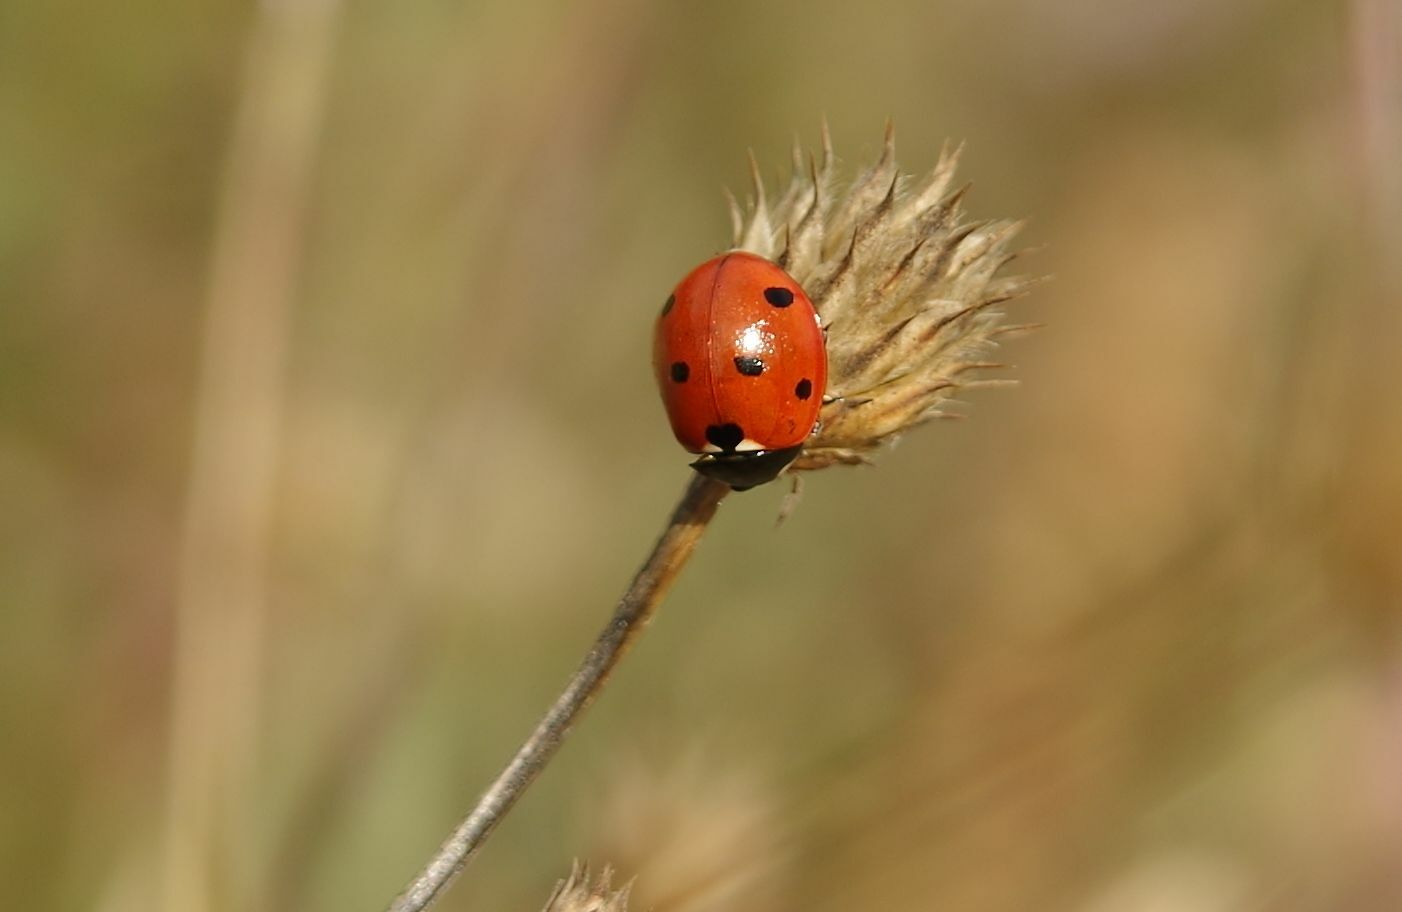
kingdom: Animalia
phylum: Arthropoda
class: Insecta
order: Coleoptera
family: Coccinellidae
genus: Coccinella
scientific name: Coccinella septempunctata
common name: Sevenspotted lady beetle
